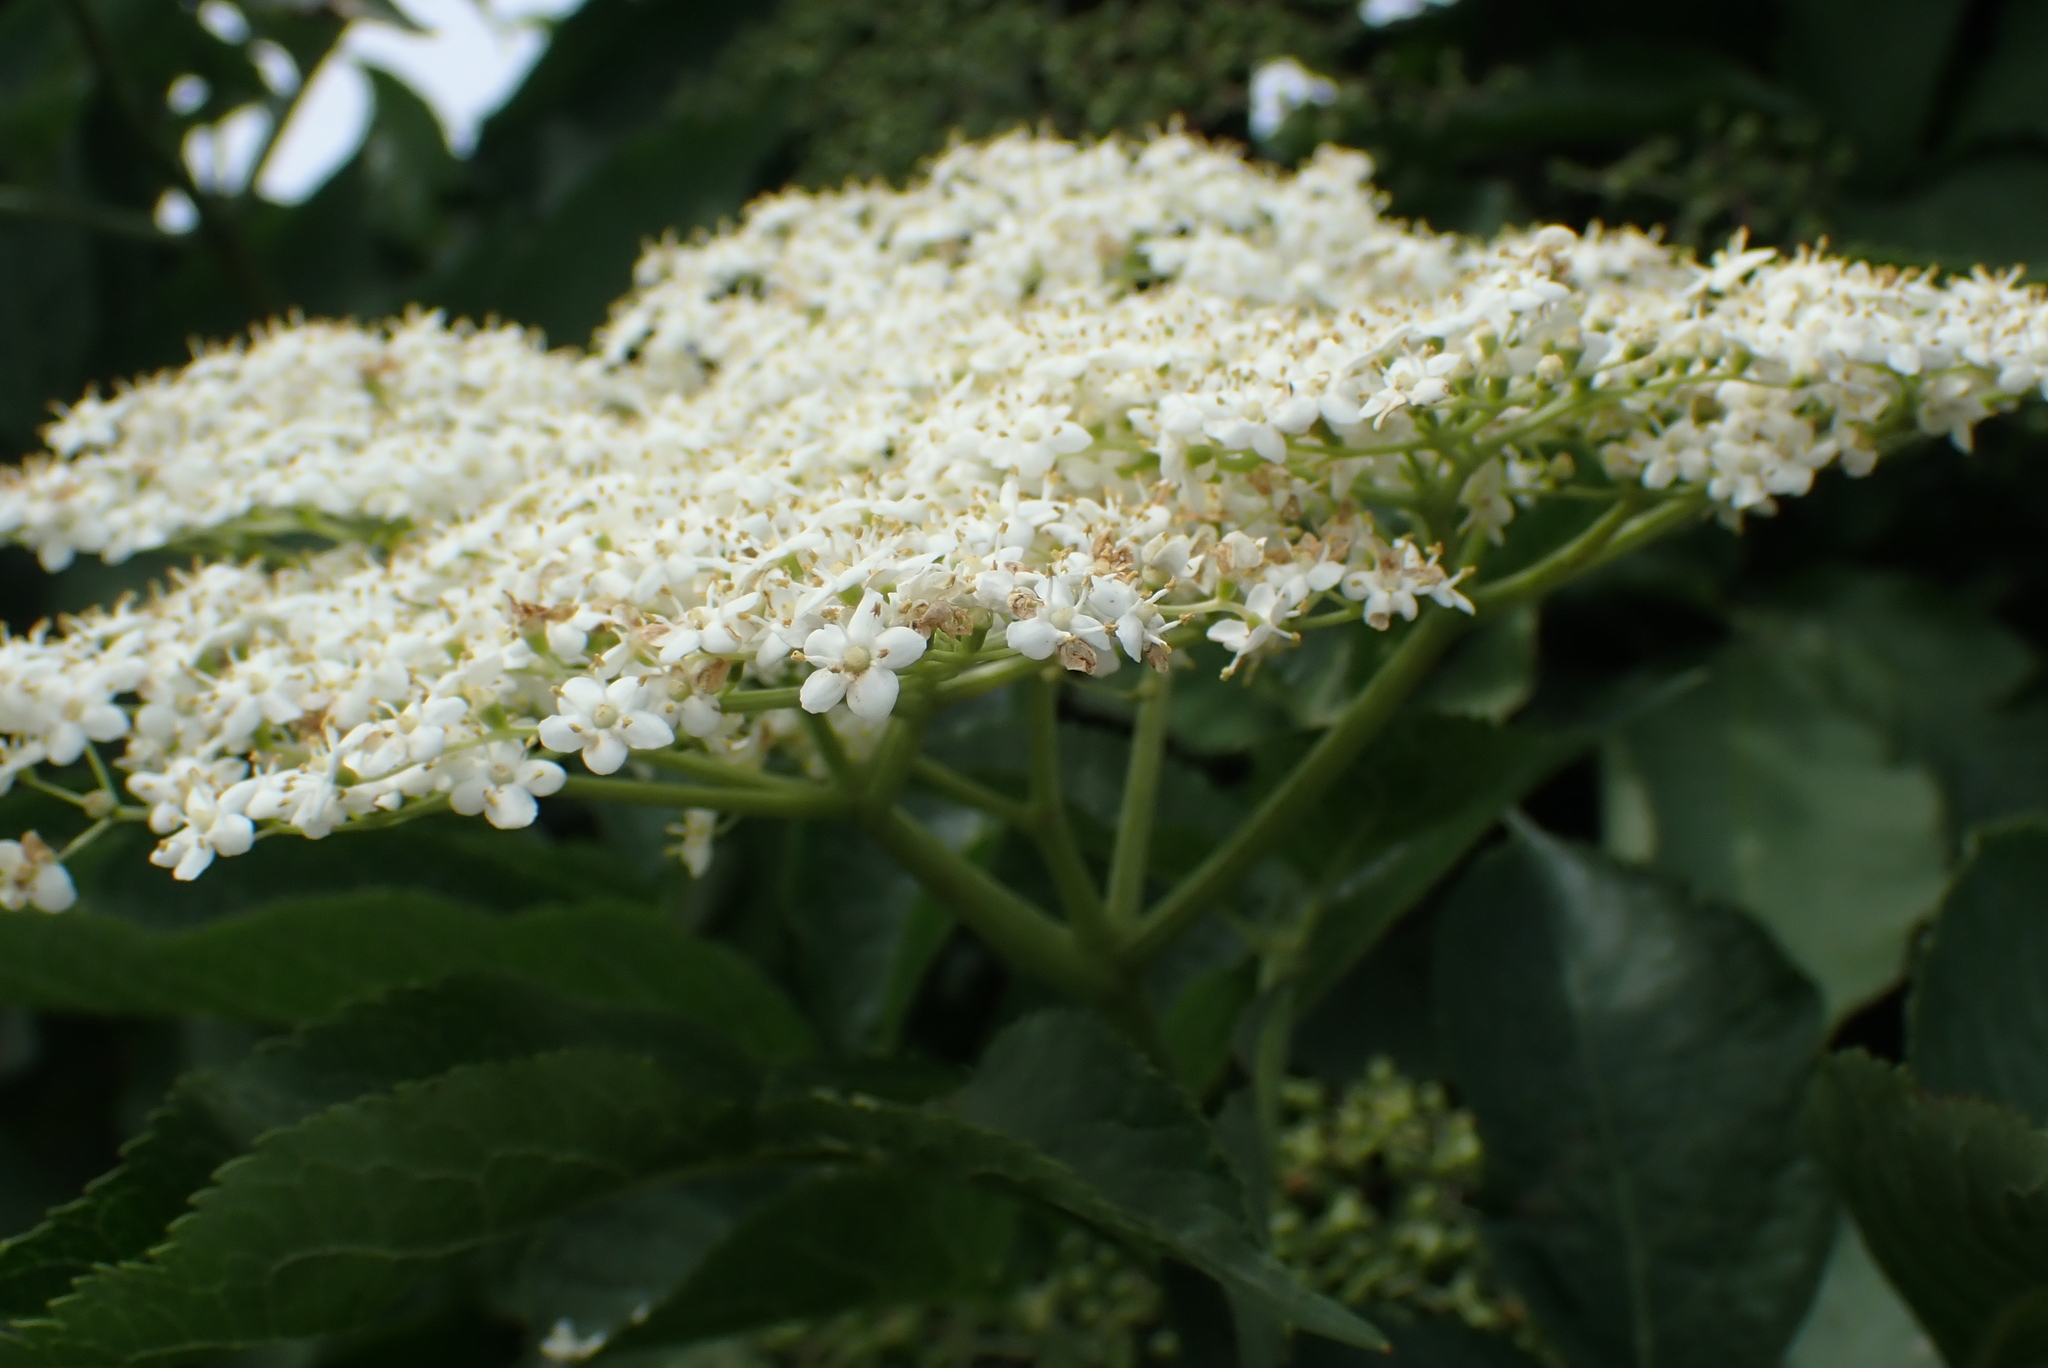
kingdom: Plantae
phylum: Tracheophyta
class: Magnoliopsida
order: Dipsacales
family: Viburnaceae
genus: Sambucus
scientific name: Sambucus nigra
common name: Elder
